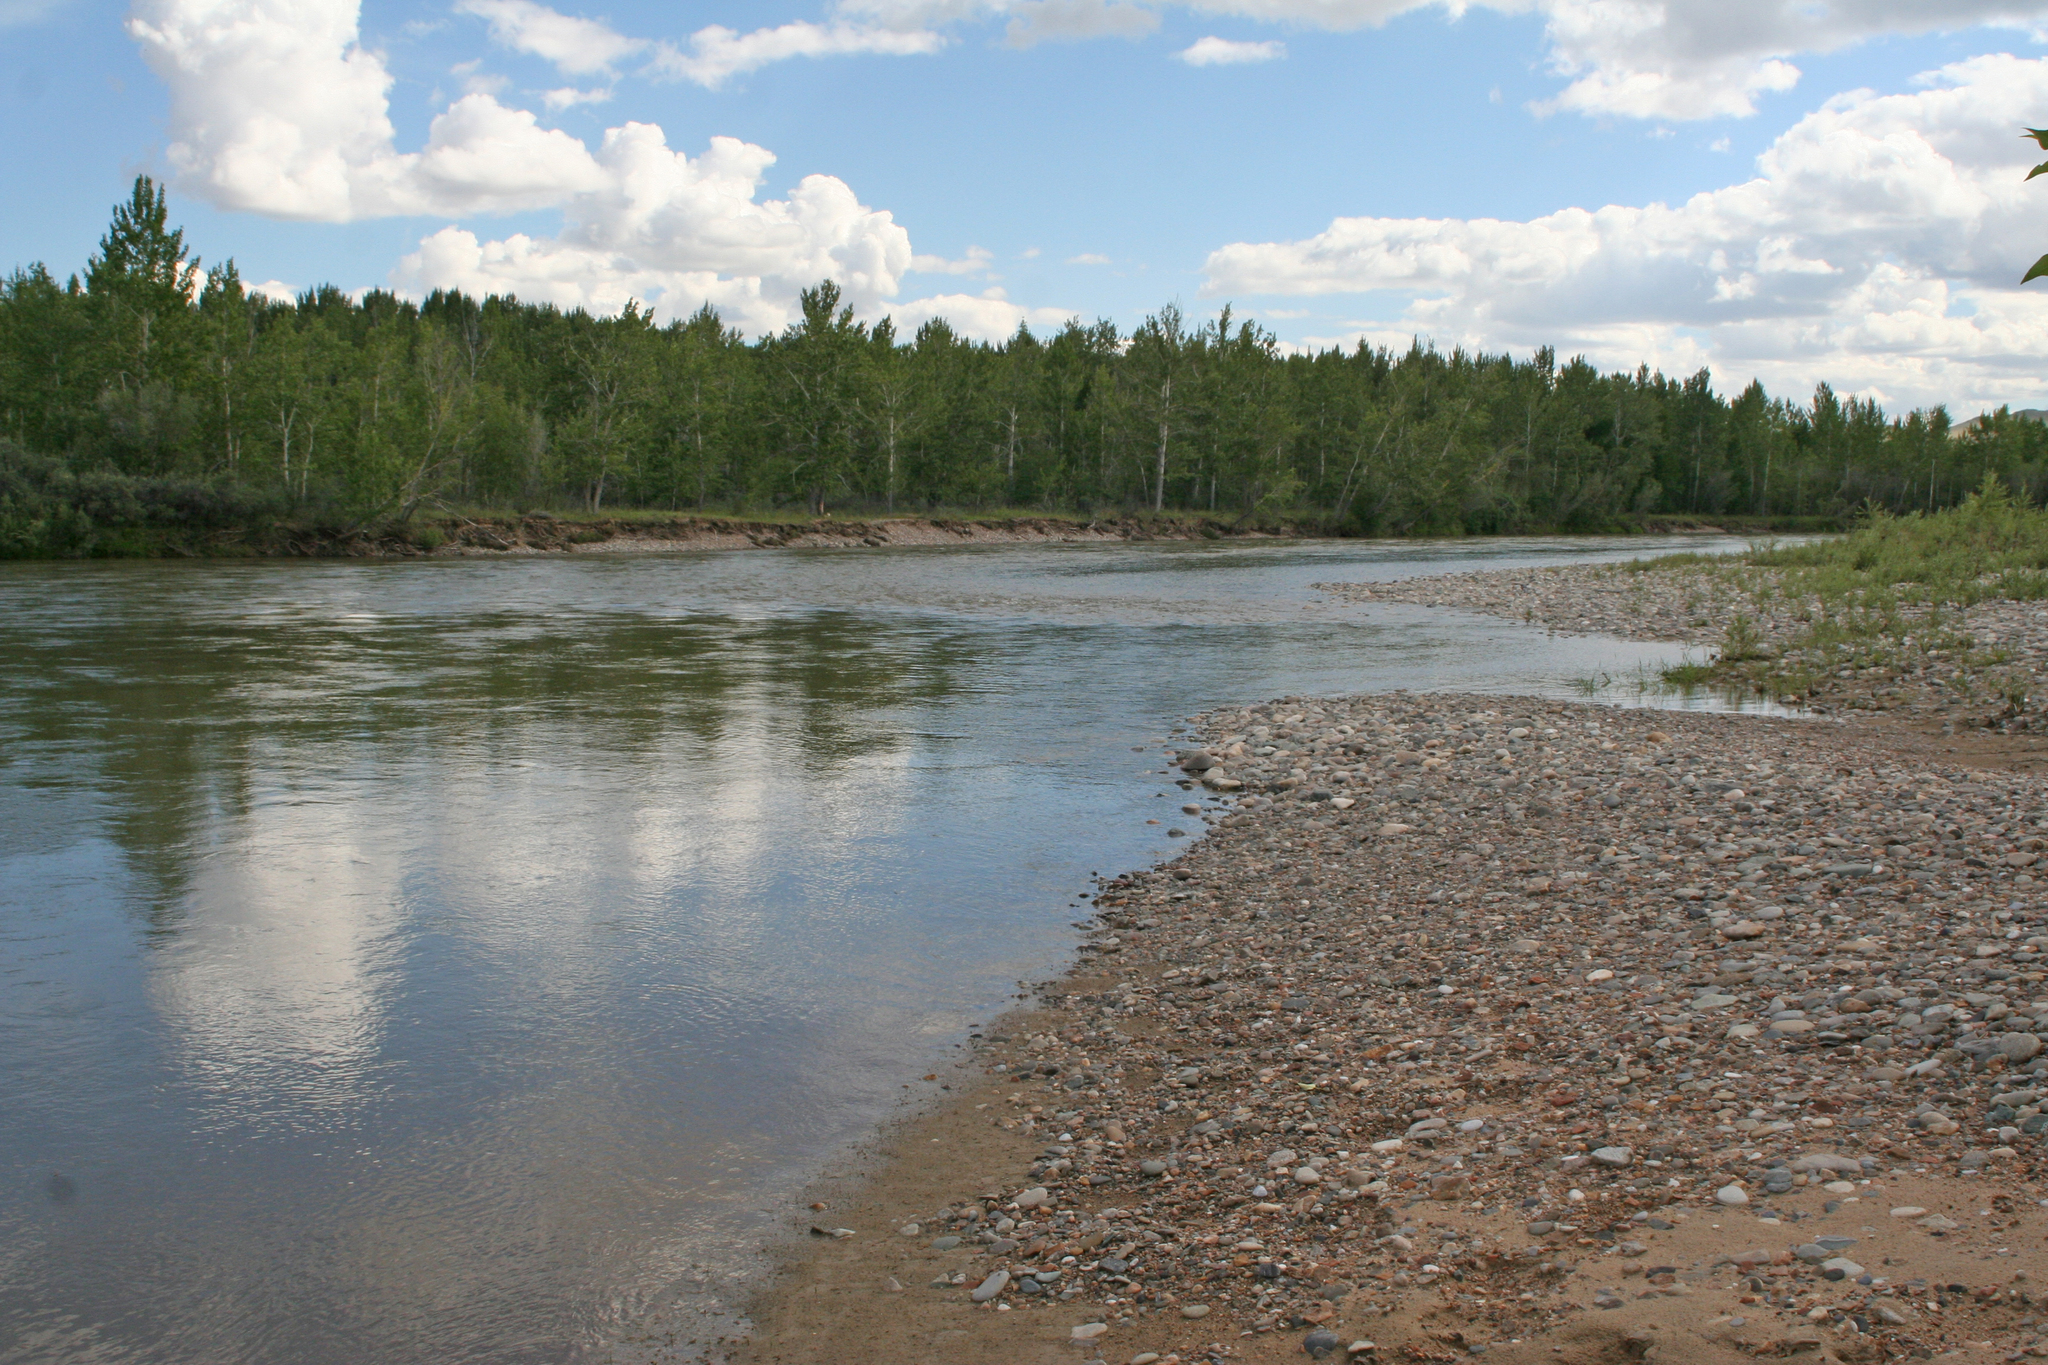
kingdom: Plantae
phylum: Tracheophyta
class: Magnoliopsida
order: Malpighiales
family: Salicaceae
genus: Populus
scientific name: Populus laurifolia
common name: Laurel-leaf poplar
